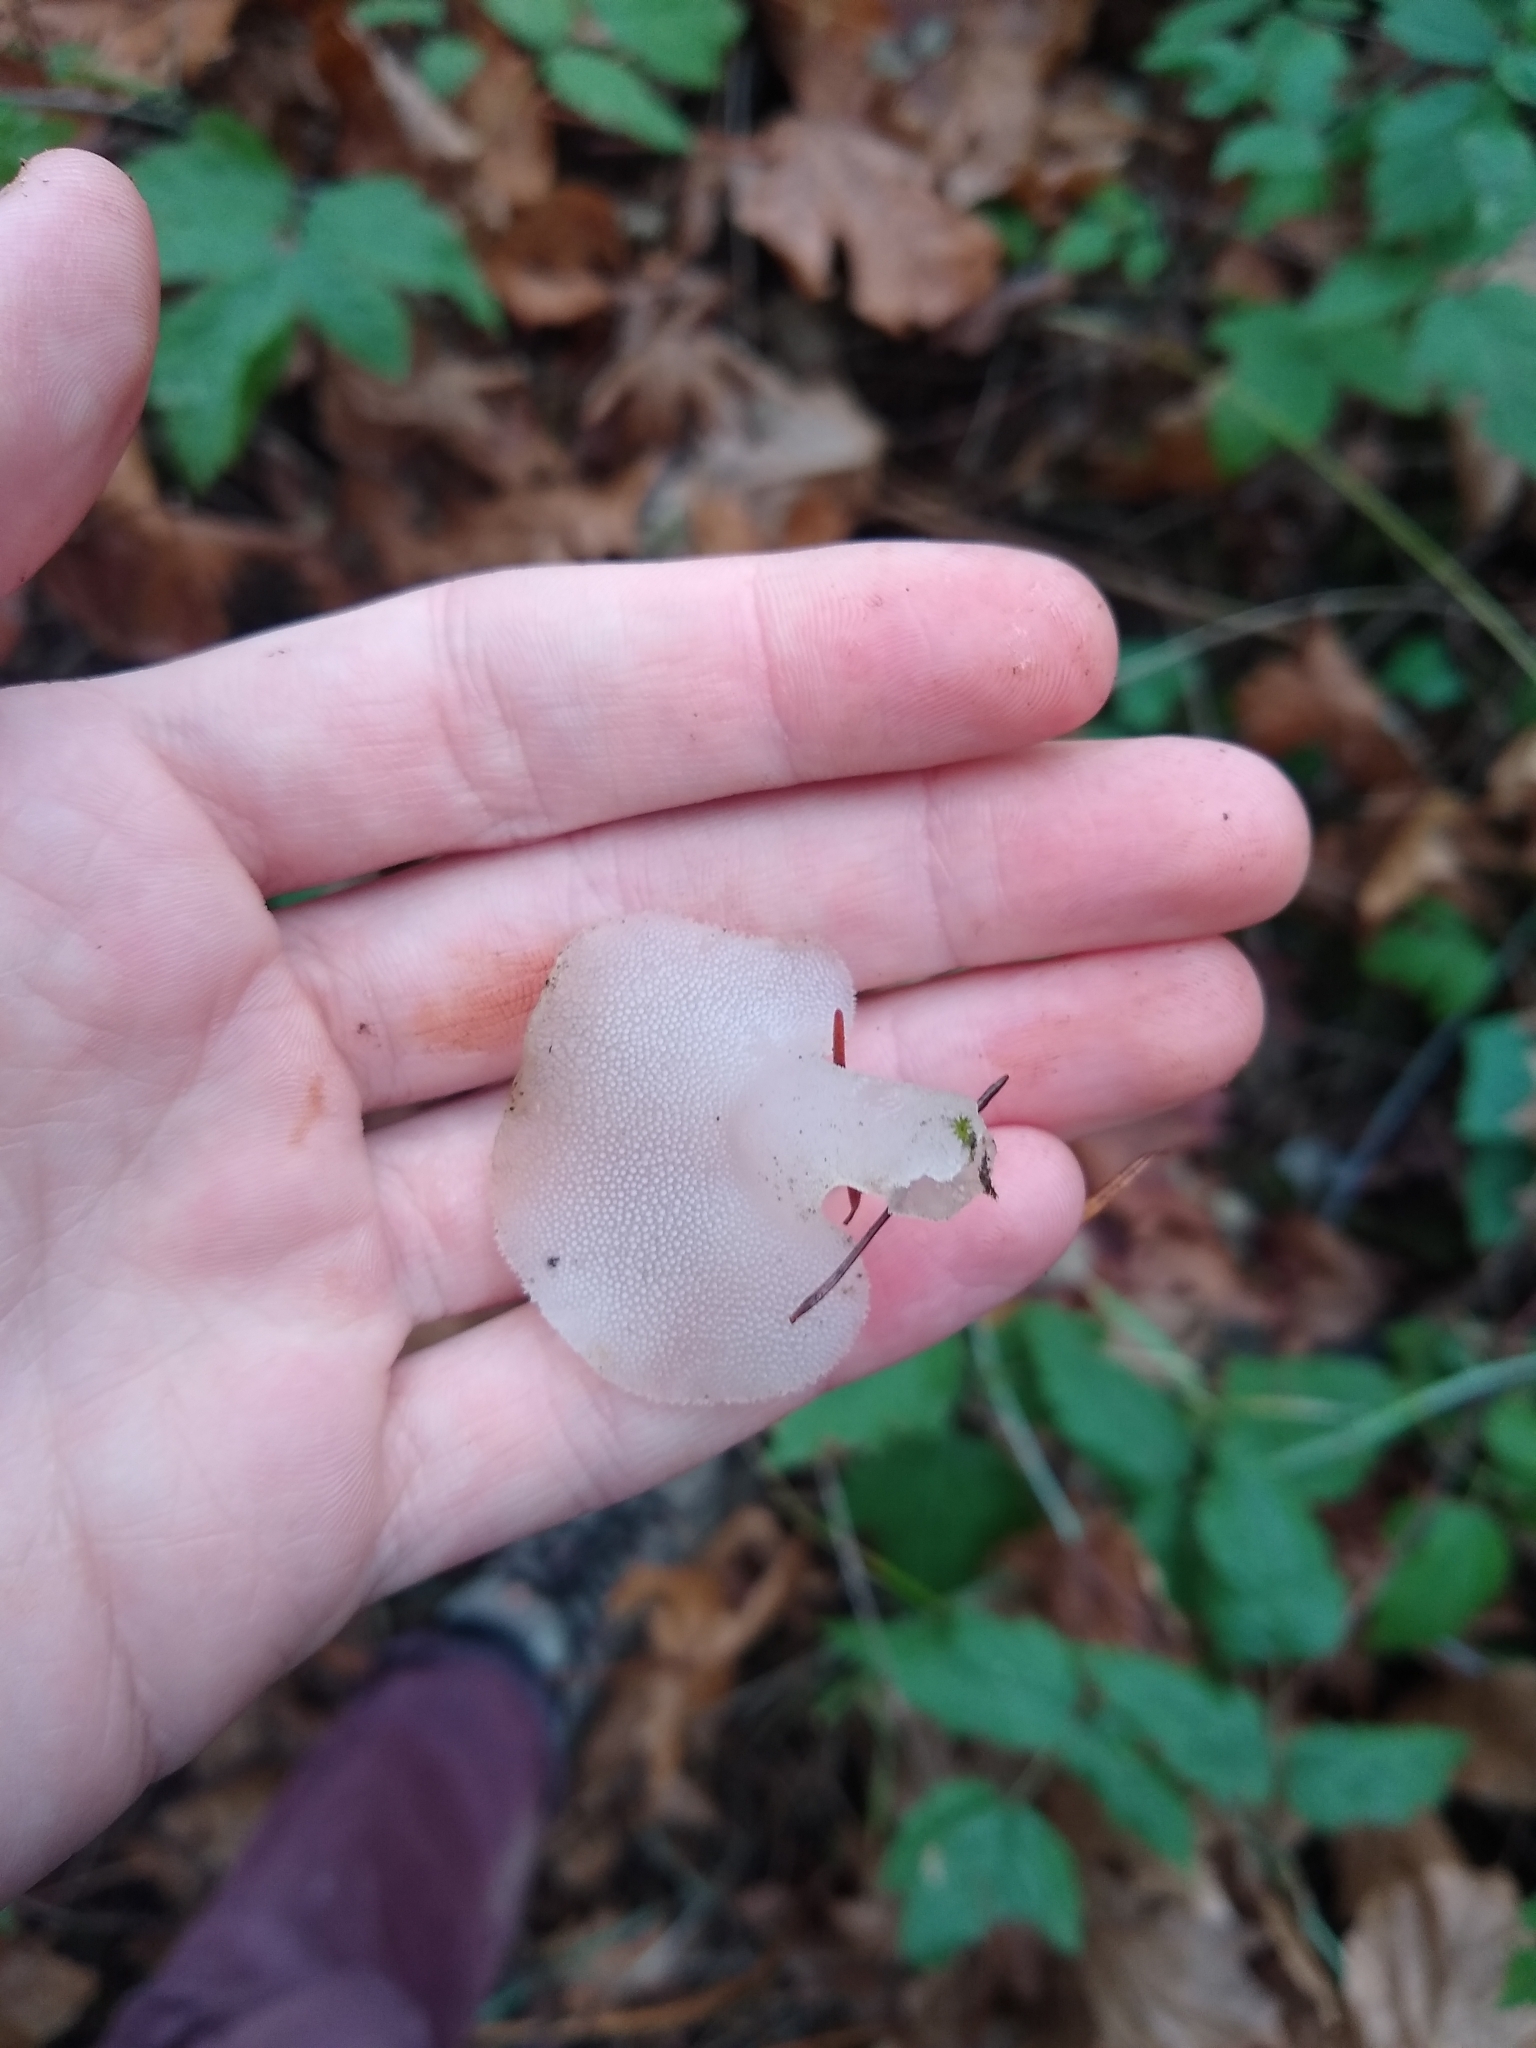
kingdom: Fungi
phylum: Basidiomycota
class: Agaricomycetes
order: Auriculariales
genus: Pseudohydnum
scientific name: Pseudohydnum gelatinosum
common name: Jelly tongue
